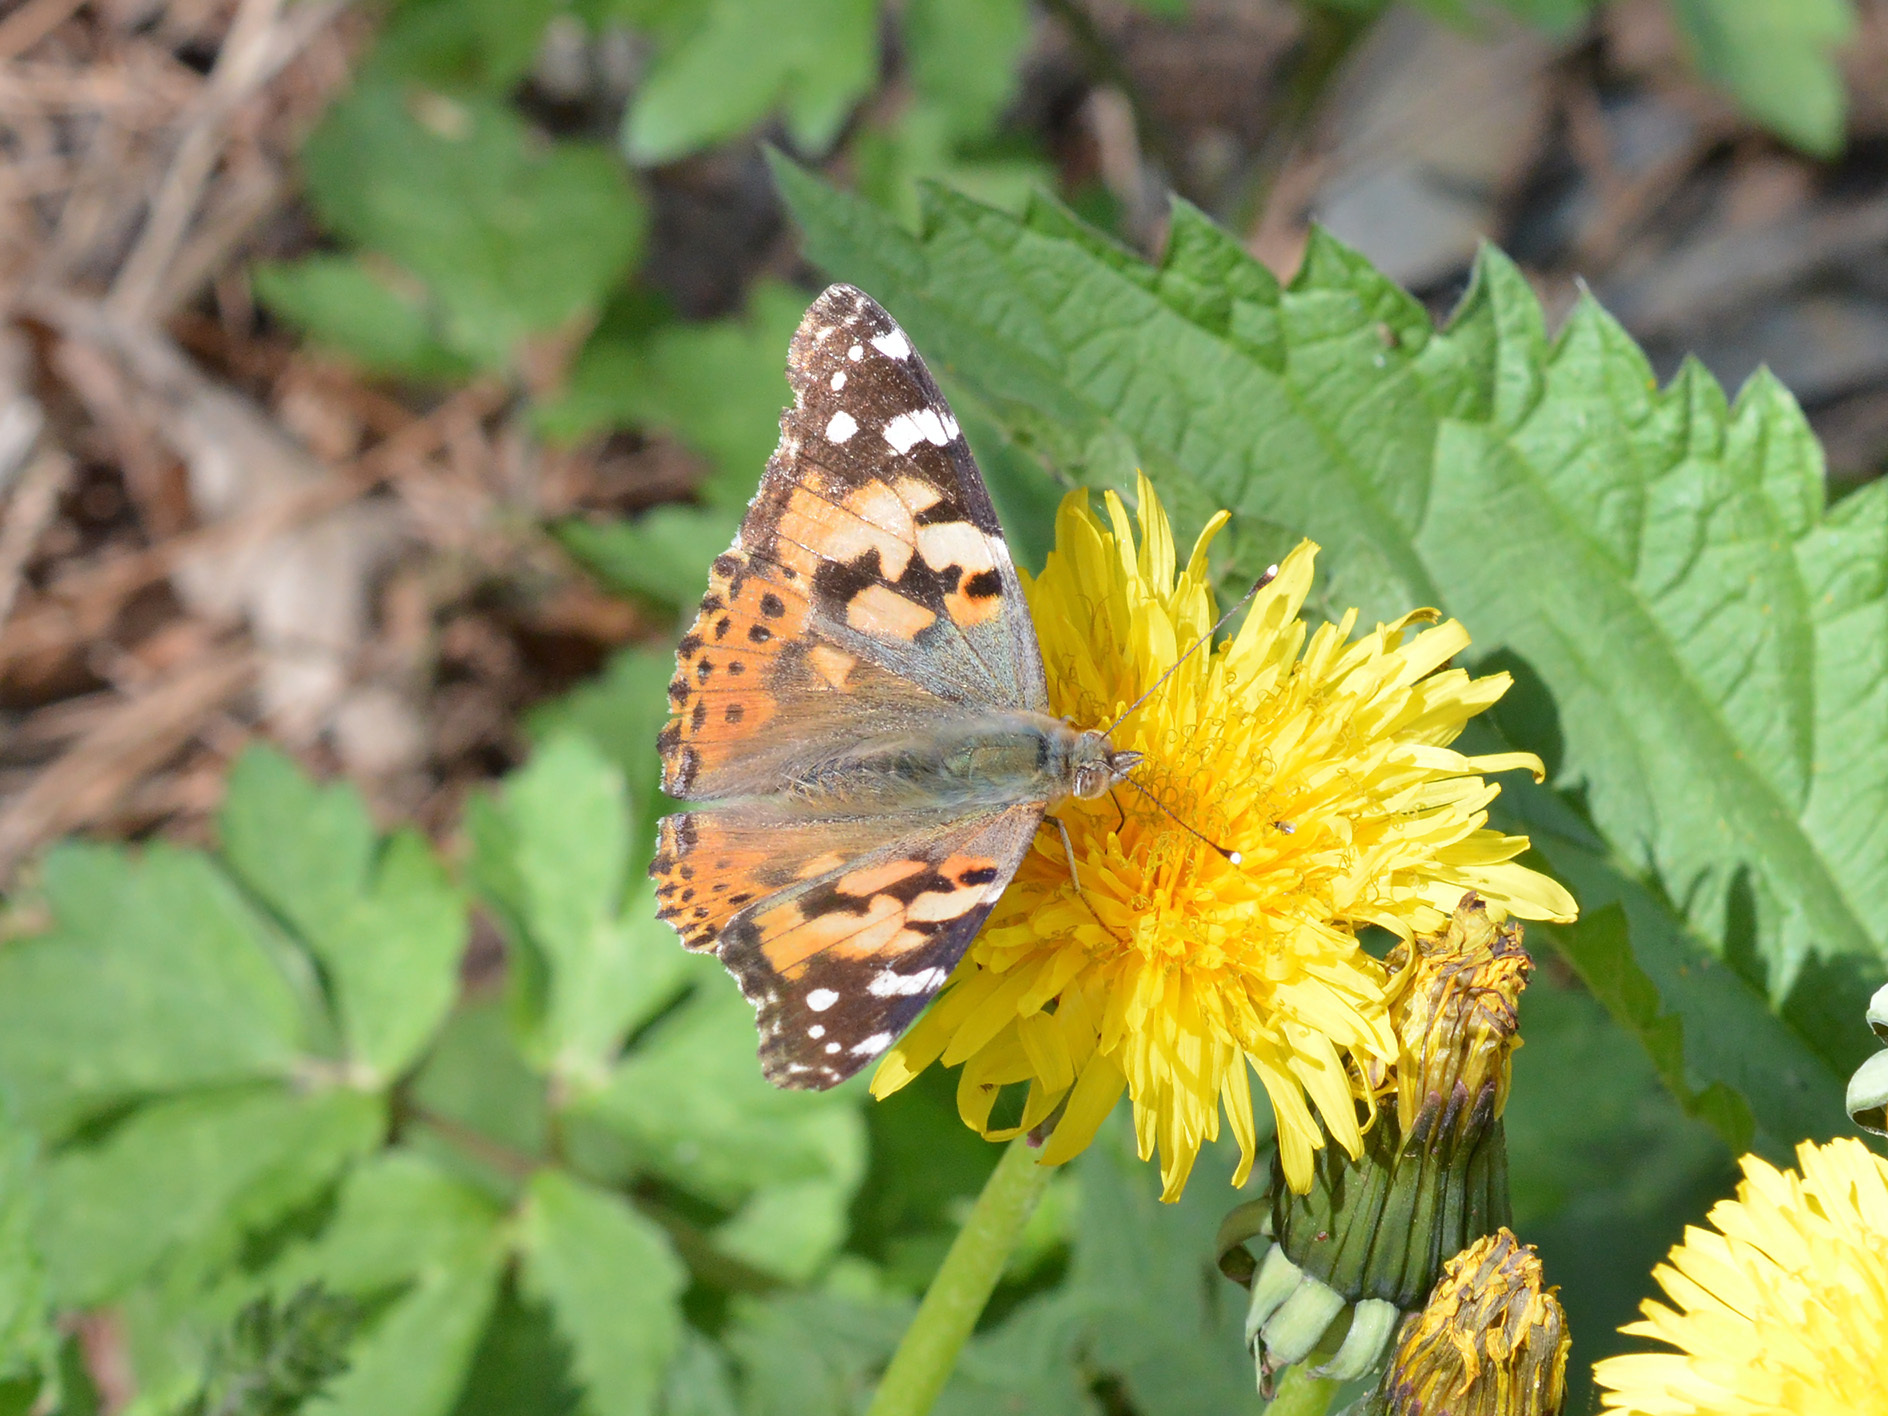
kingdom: Animalia
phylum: Arthropoda
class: Insecta
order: Lepidoptera
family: Nymphalidae
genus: Vanessa
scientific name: Vanessa cardui
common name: Painted lady
